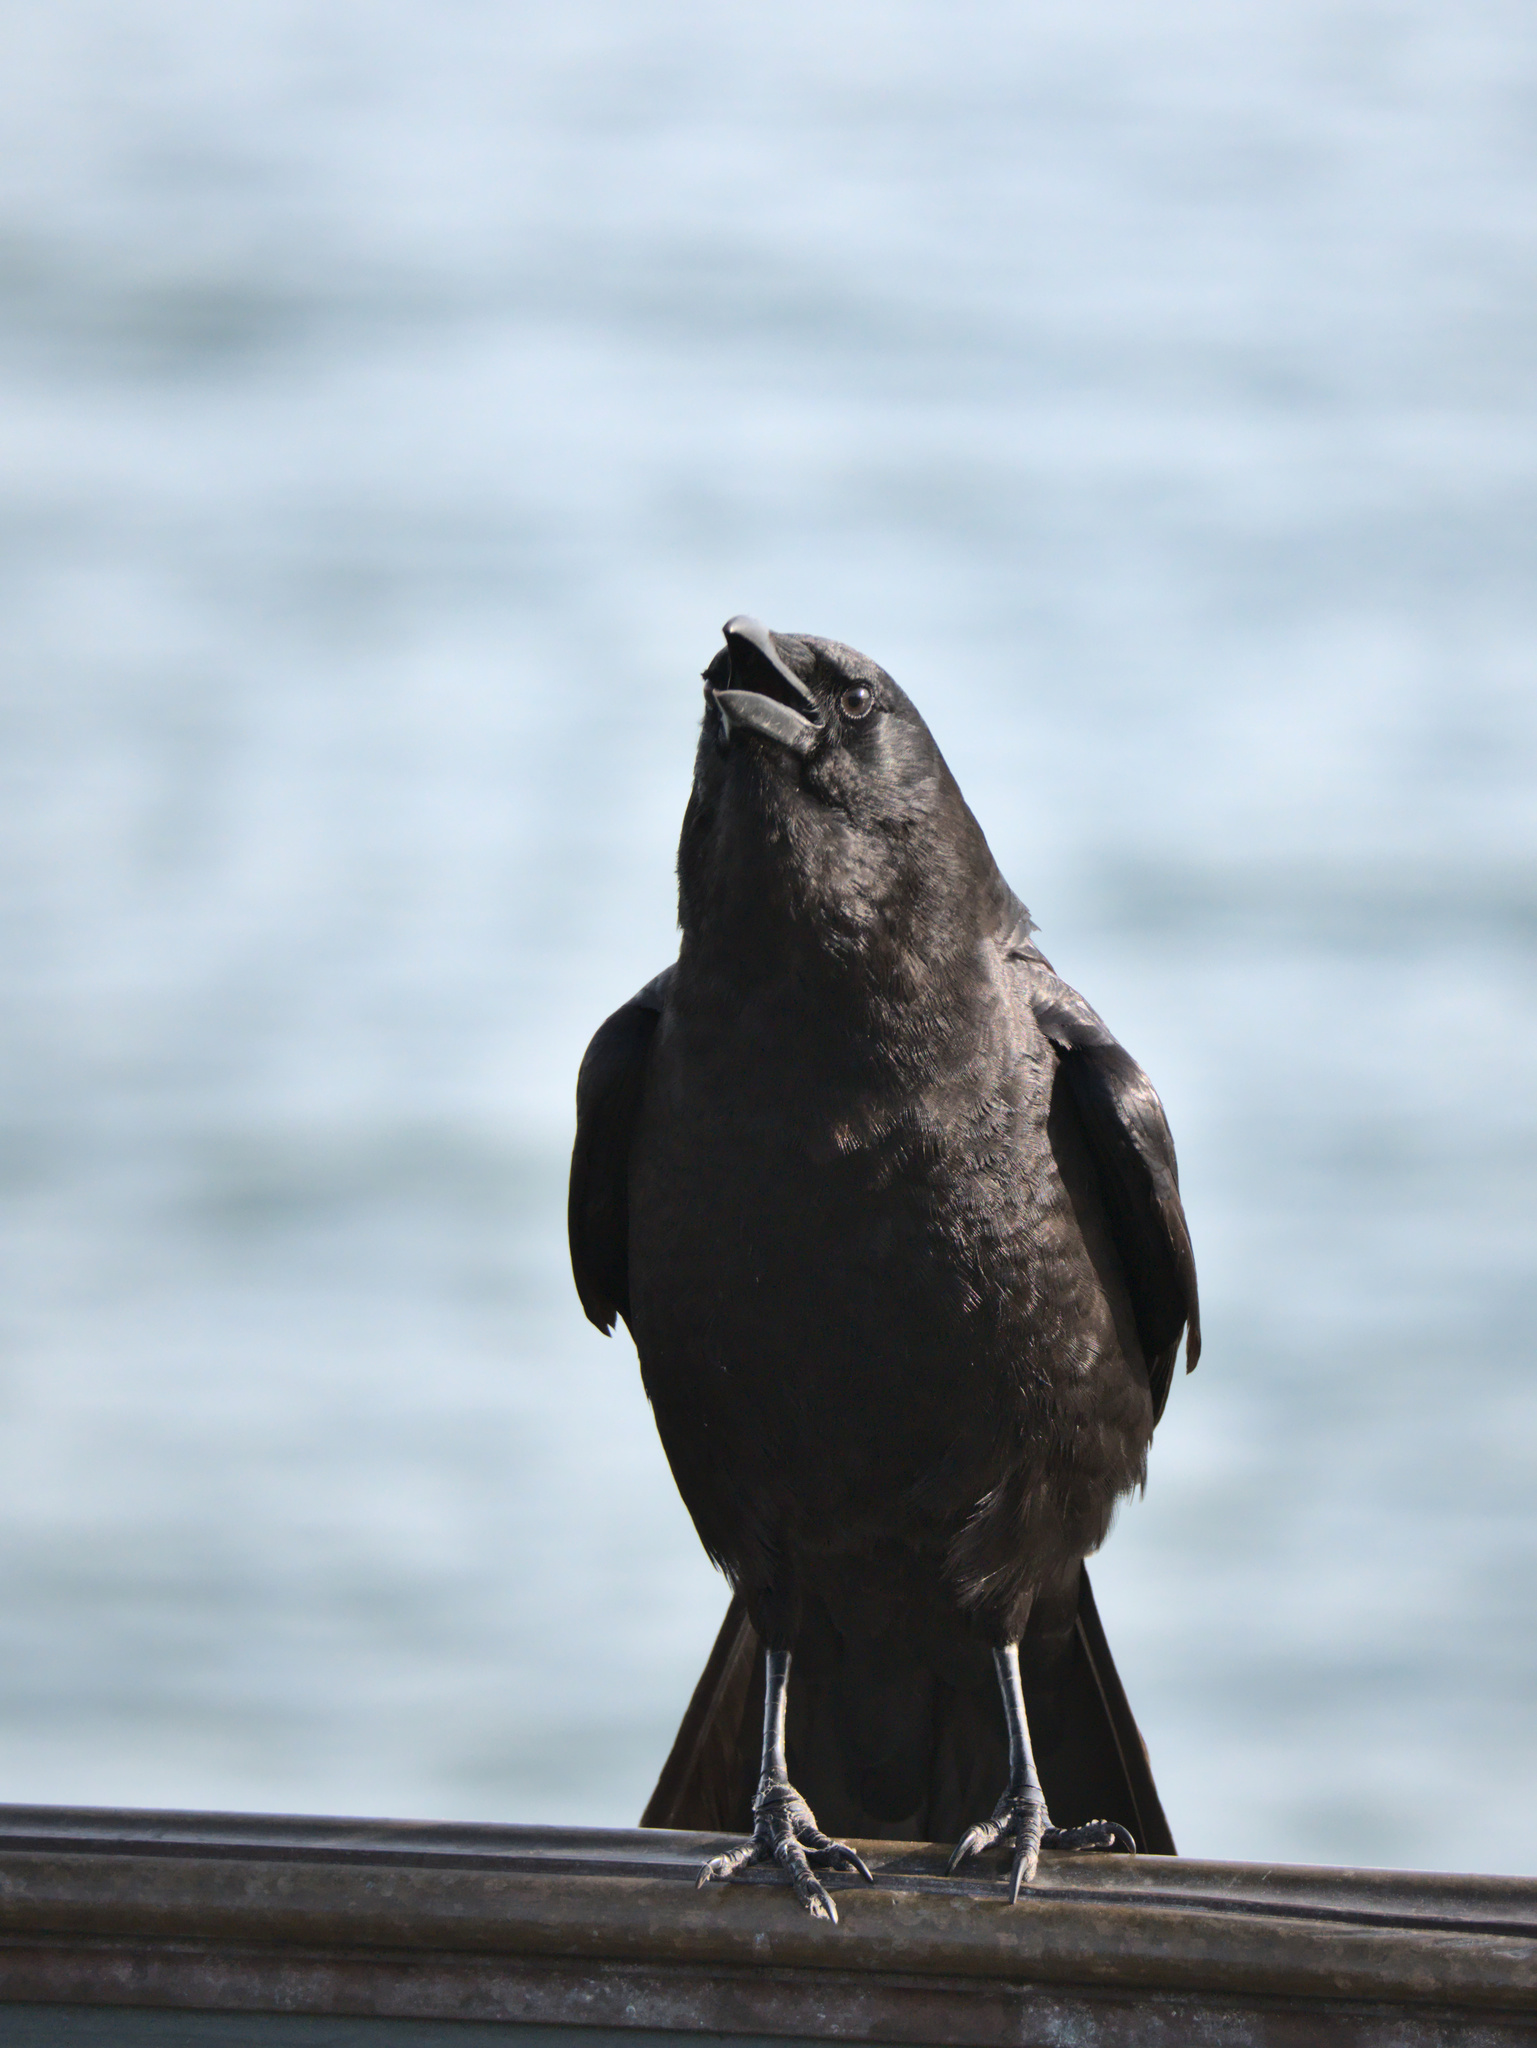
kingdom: Animalia
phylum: Chordata
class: Aves
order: Passeriformes
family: Corvidae
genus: Corvus
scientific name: Corvus brachyrhynchos
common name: American crow
